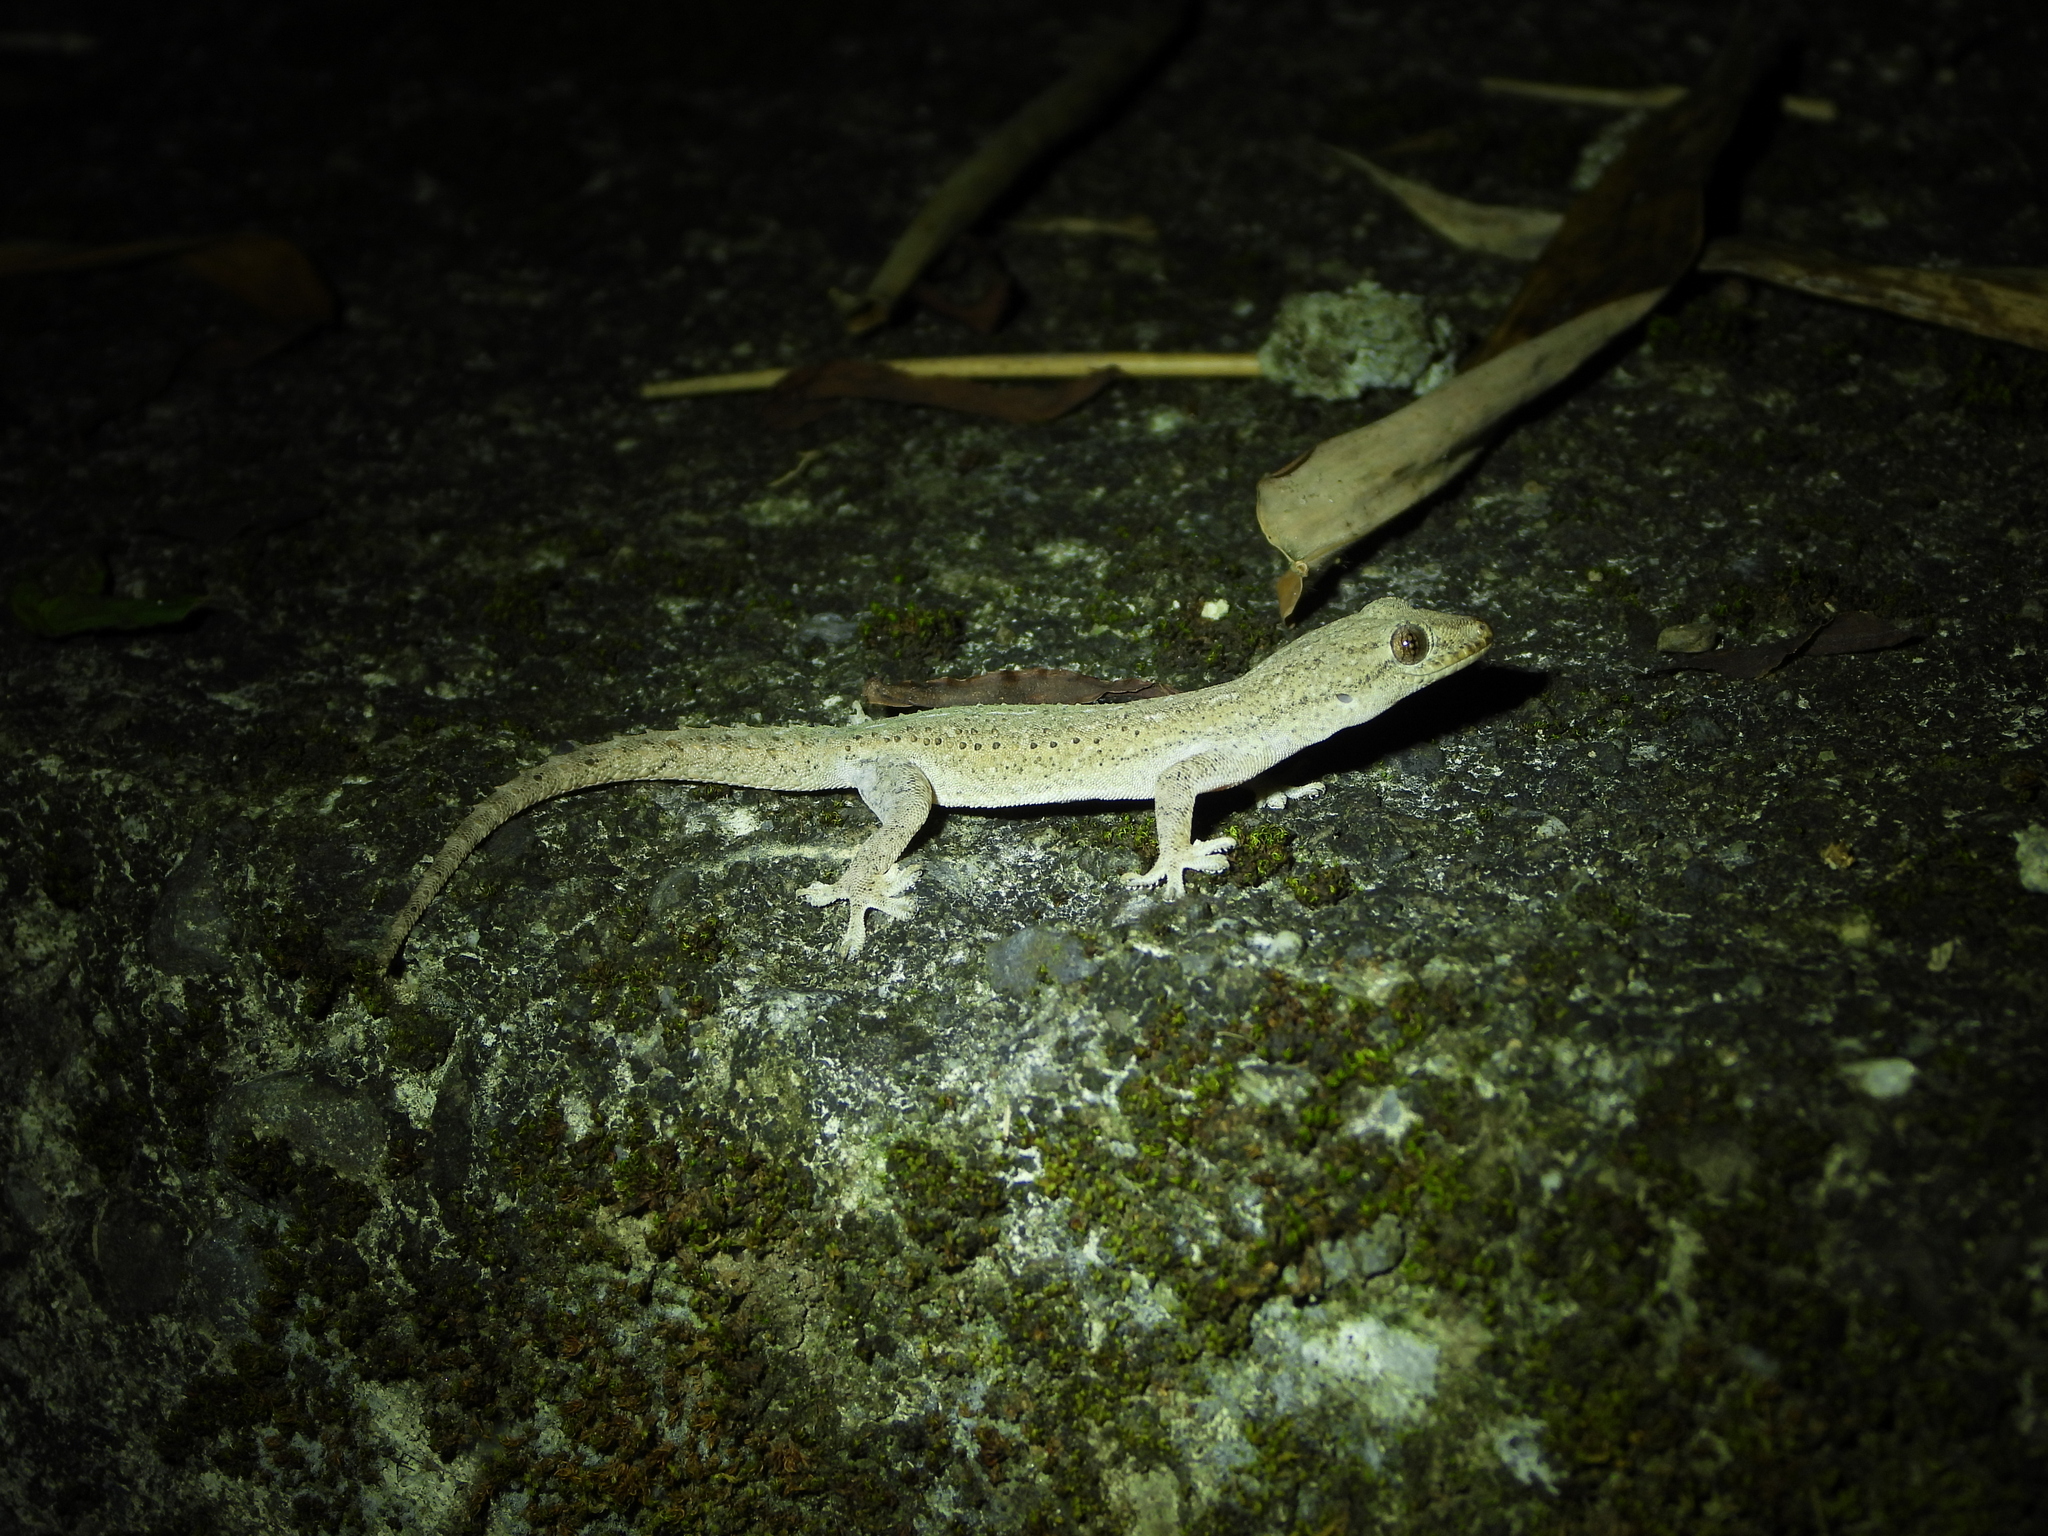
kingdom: Animalia
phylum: Chordata
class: Squamata
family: Gekkonidae
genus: Hemidactylus
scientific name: Hemidactylus frenatus
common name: Common house gecko
